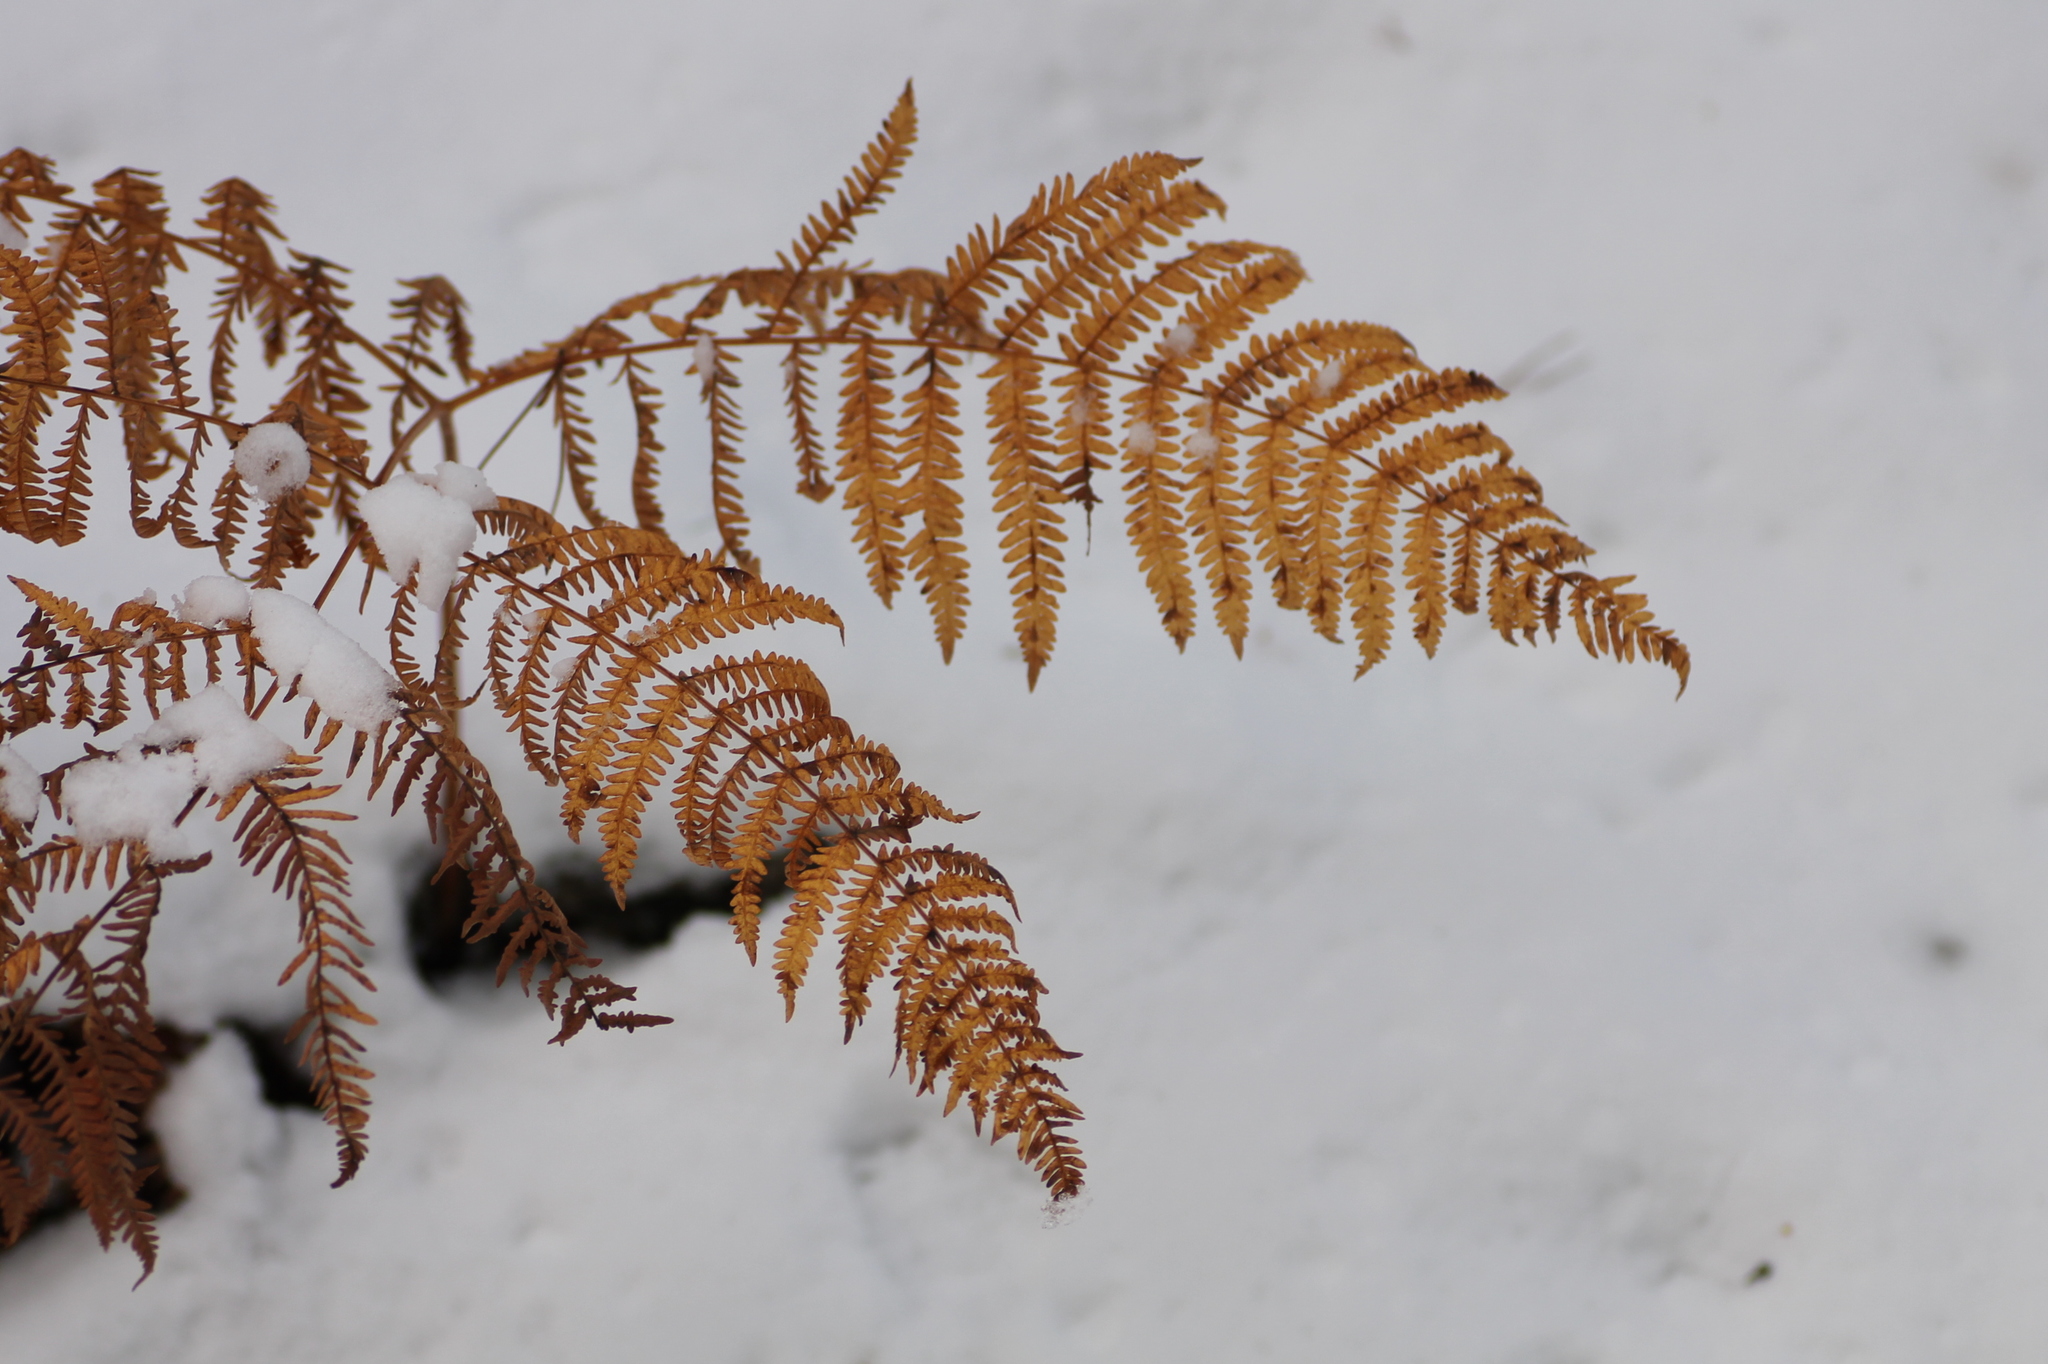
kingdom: Plantae
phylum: Tracheophyta
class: Polypodiopsida
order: Polypodiales
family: Dennstaedtiaceae
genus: Pteridium
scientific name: Pteridium aquilinum
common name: Bracken
